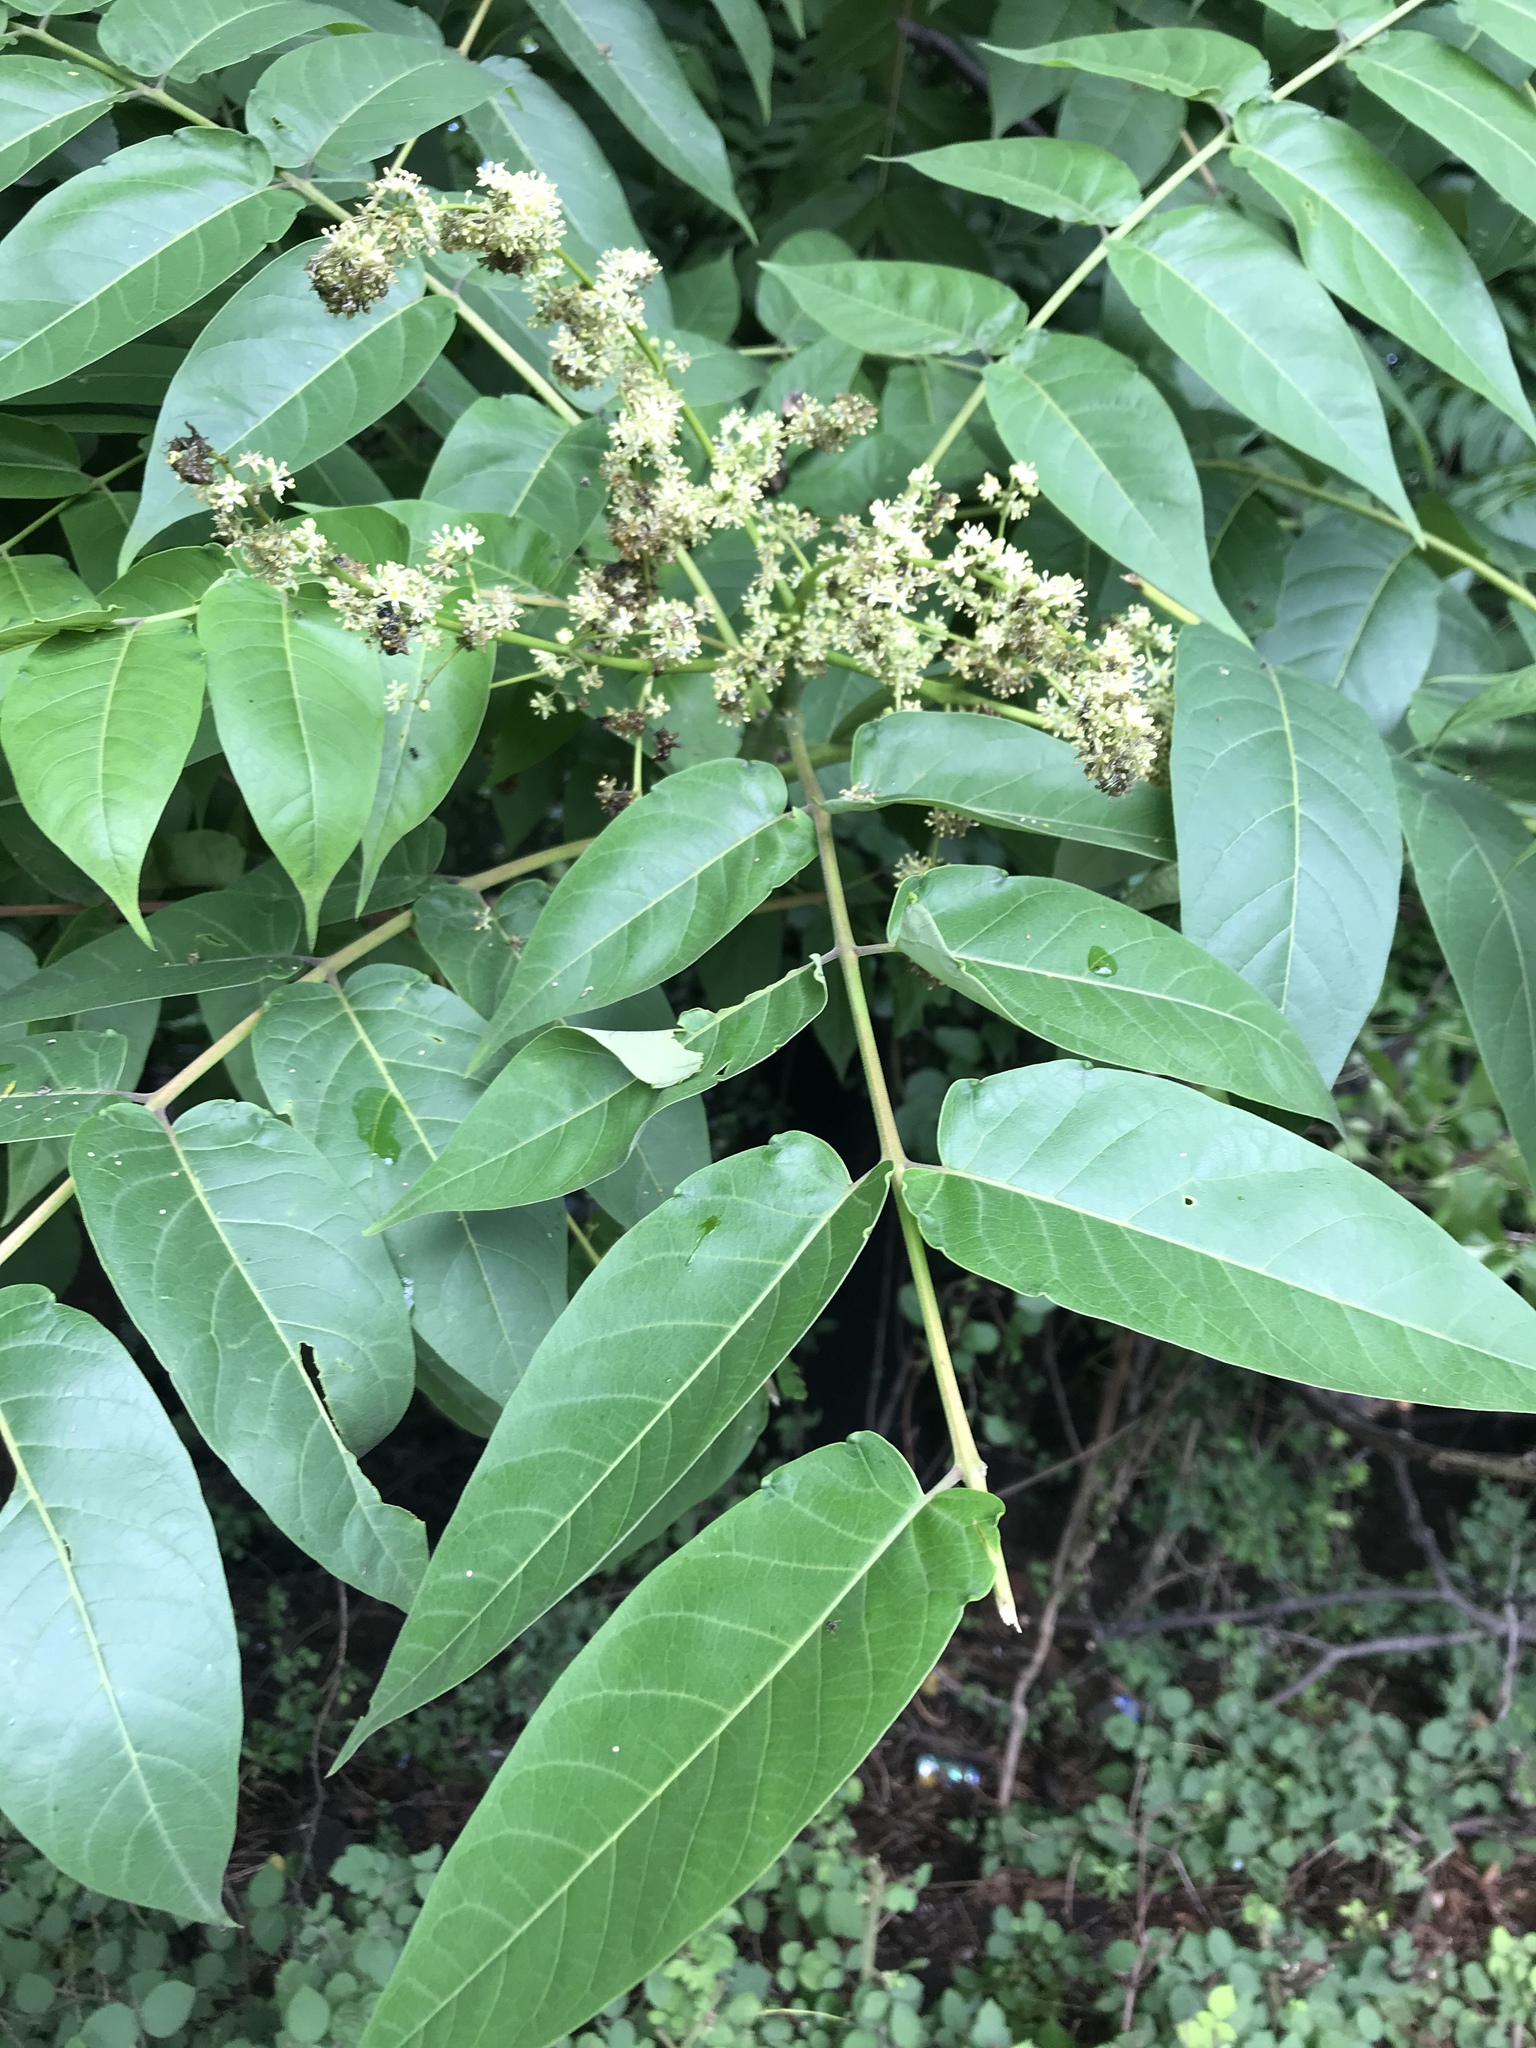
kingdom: Plantae
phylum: Tracheophyta
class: Magnoliopsida
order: Sapindales
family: Simaroubaceae
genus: Ailanthus
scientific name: Ailanthus altissima
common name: Tree-of-heaven
